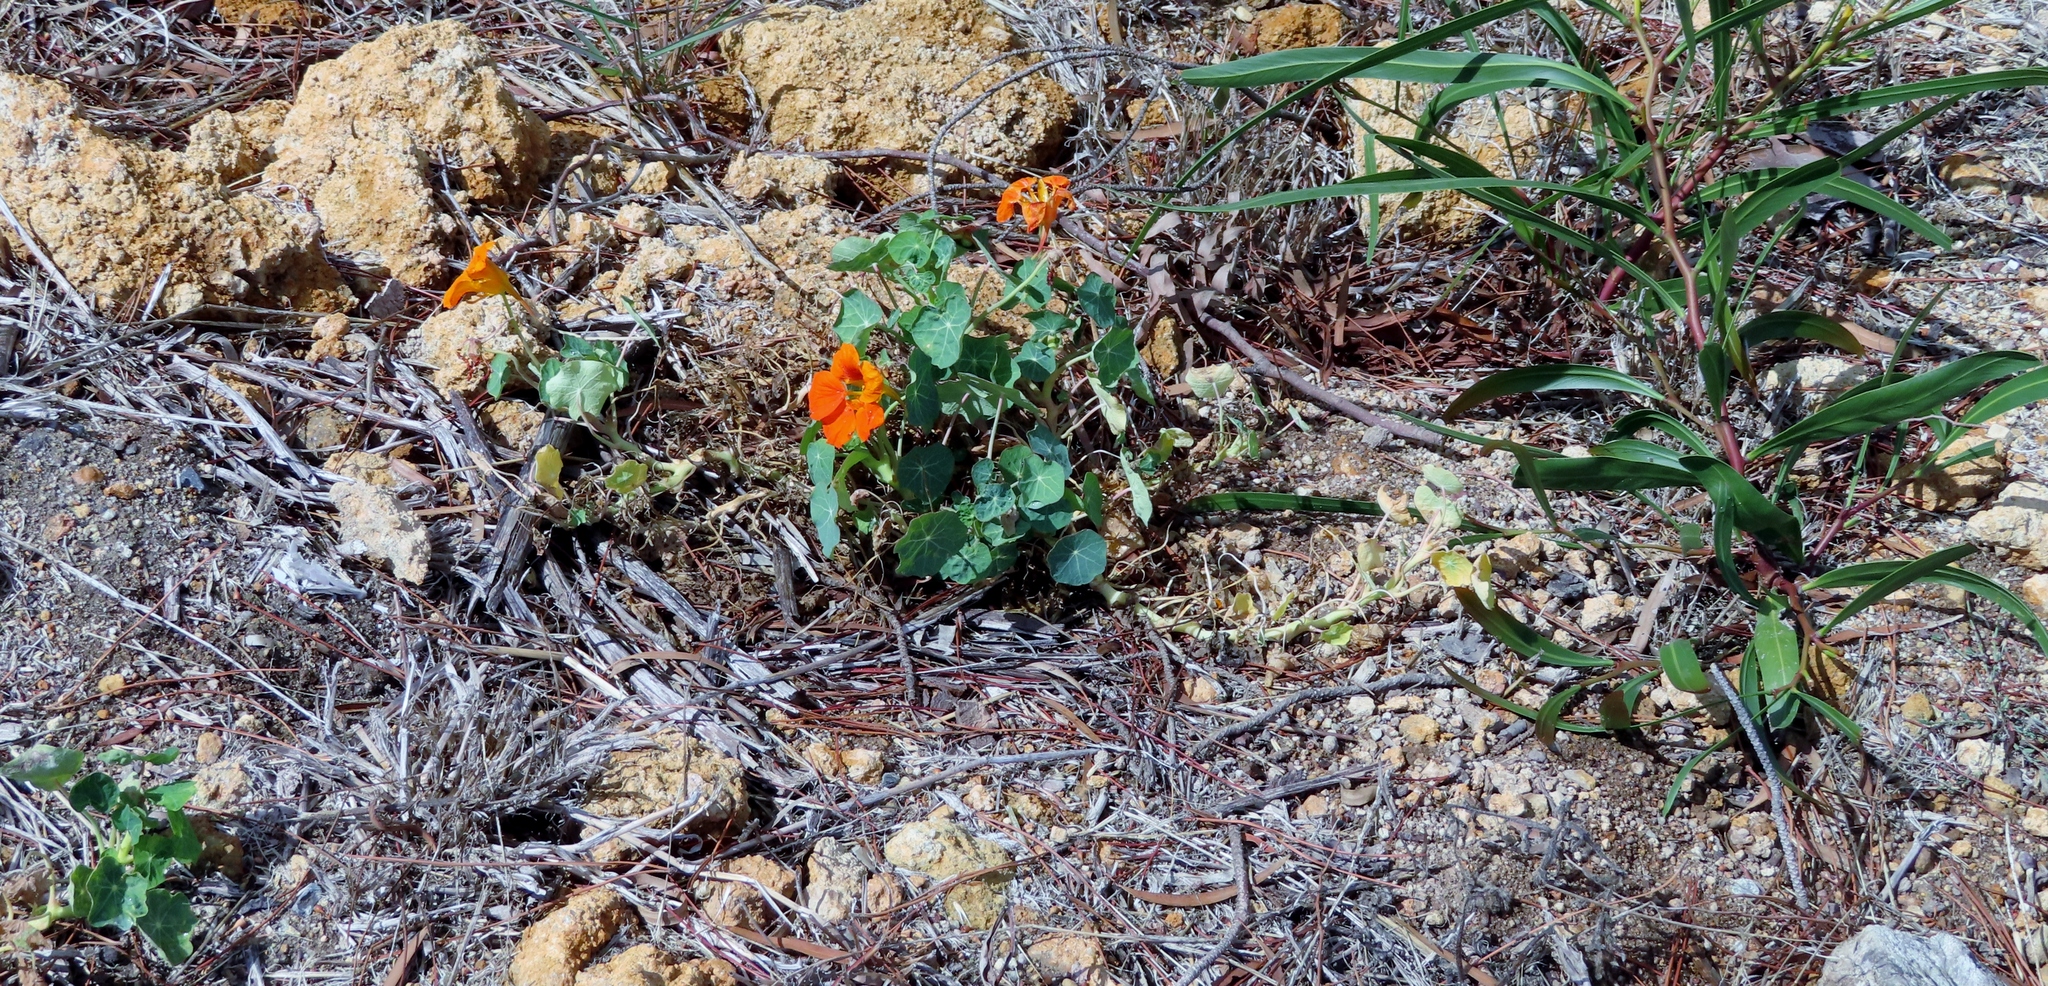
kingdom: Plantae
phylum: Tracheophyta
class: Magnoliopsida
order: Brassicales
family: Tropaeolaceae
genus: Tropaeolum
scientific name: Tropaeolum majus
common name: Nasturtium
